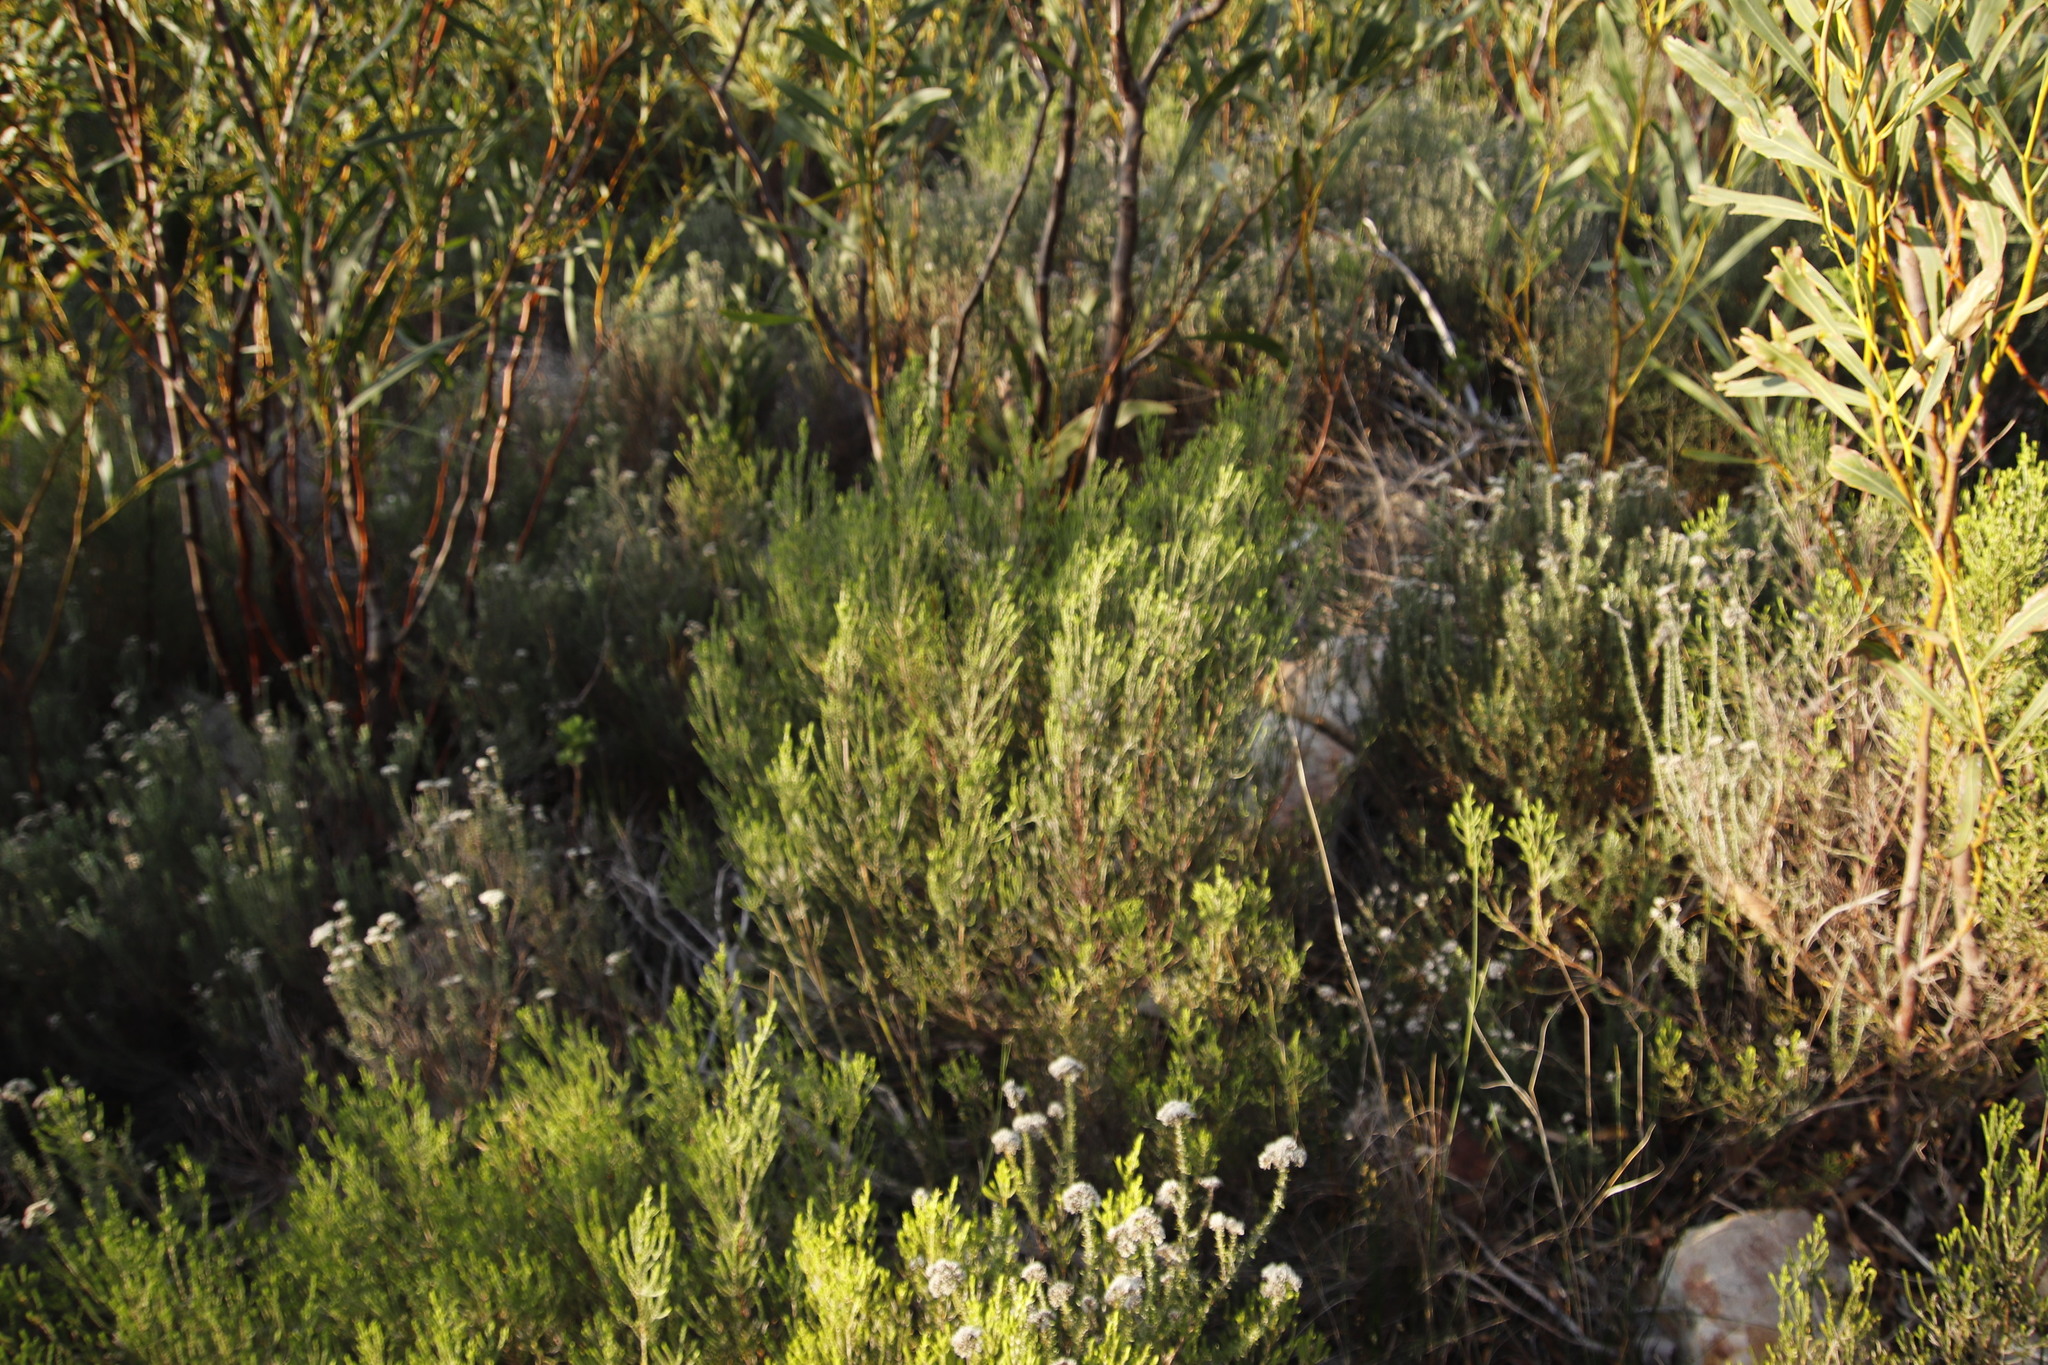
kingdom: Plantae
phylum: Tracheophyta
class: Magnoliopsida
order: Malvales
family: Thymelaeaceae
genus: Passerina
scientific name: Passerina corymbosa
